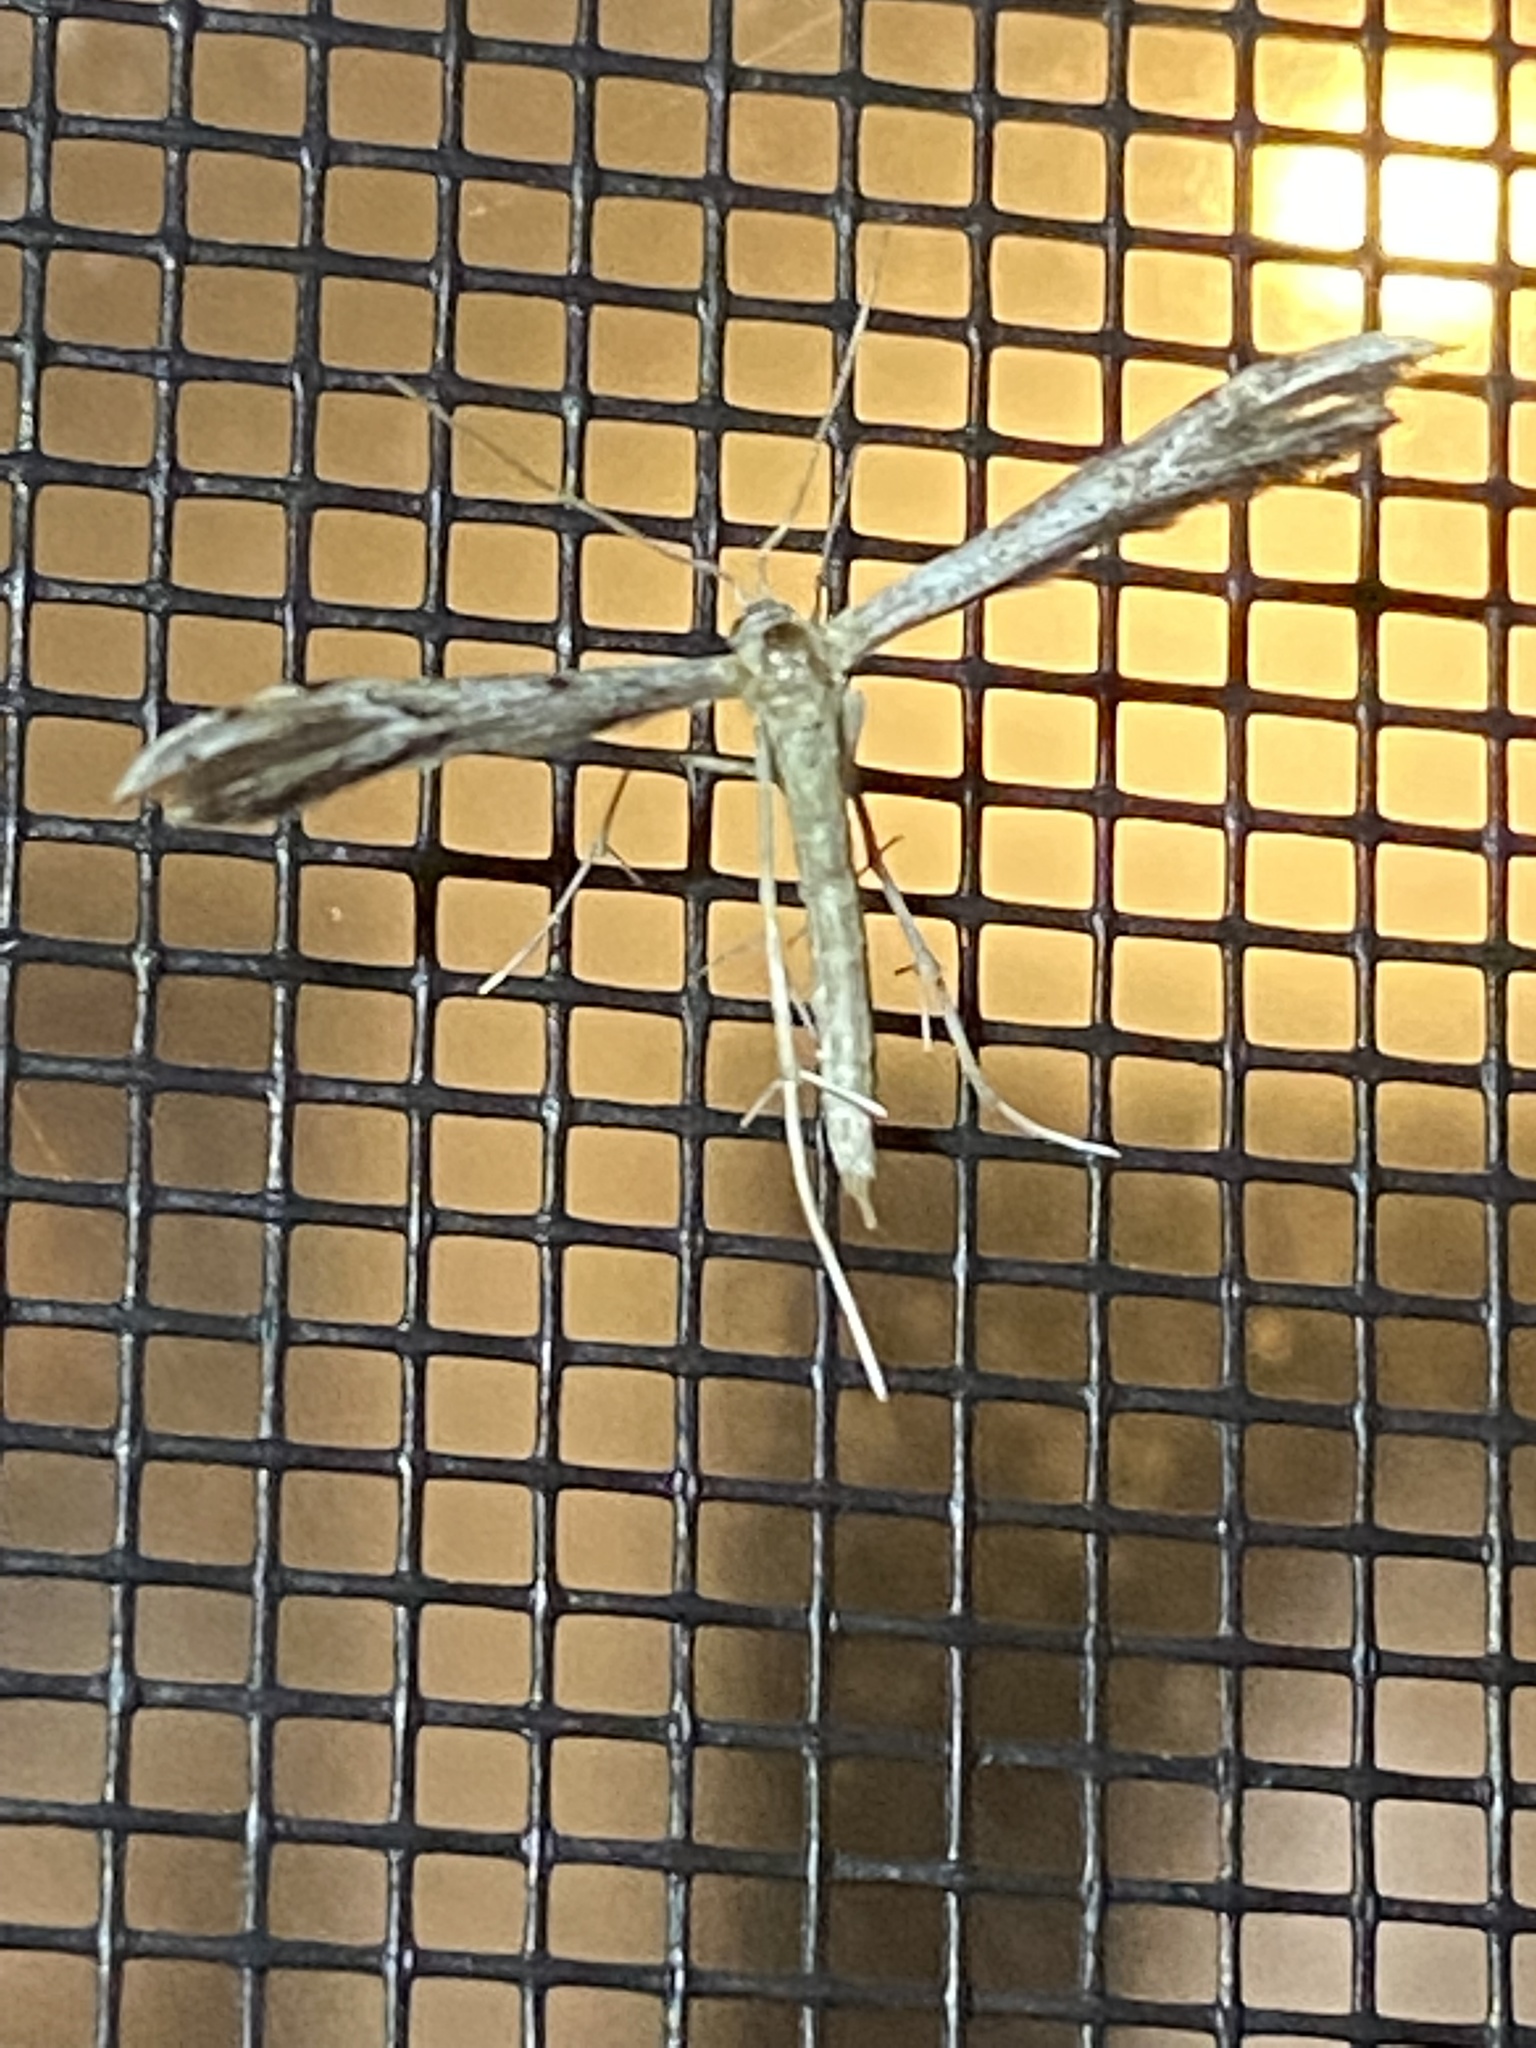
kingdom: Animalia
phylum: Arthropoda
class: Insecta
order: Lepidoptera
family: Pterophoridae
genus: Pselnophorus
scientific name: Pselnophorus belfragei
